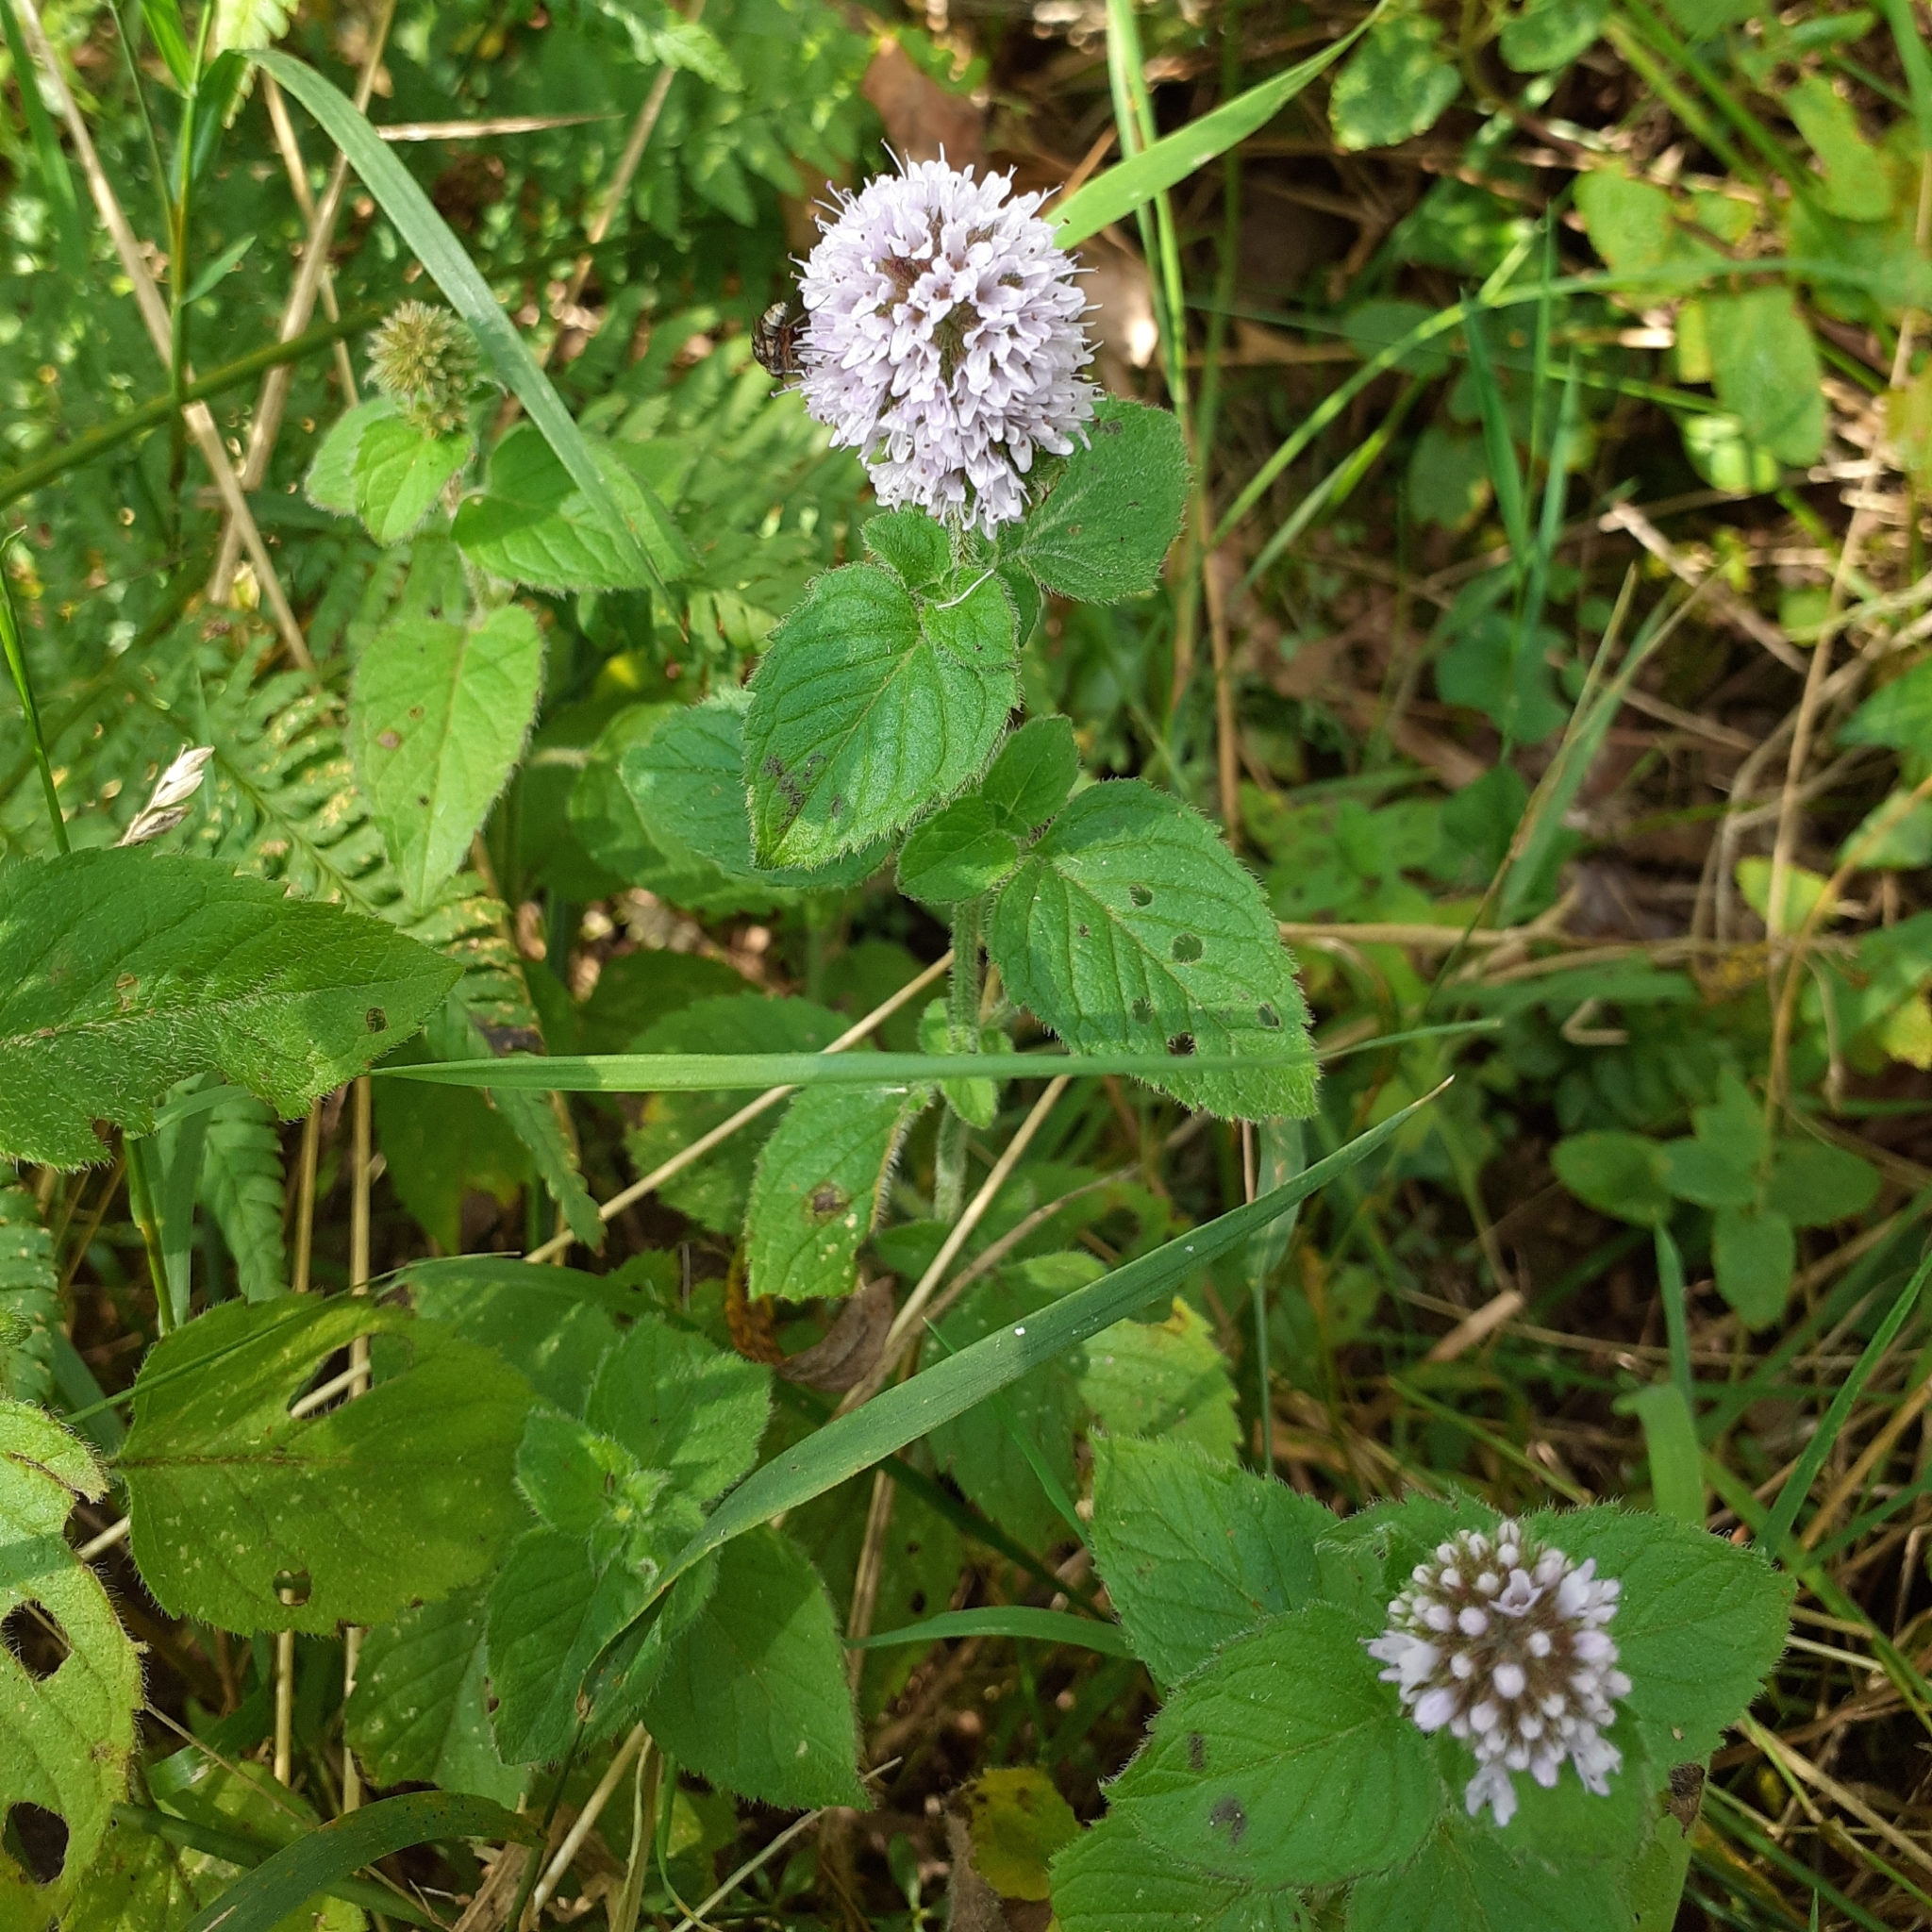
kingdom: Plantae
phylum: Tracheophyta
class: Magnoliopsida
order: Lamiales
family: Lamiaceae
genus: Mentha
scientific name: Mentha aquatica
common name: Water mint
